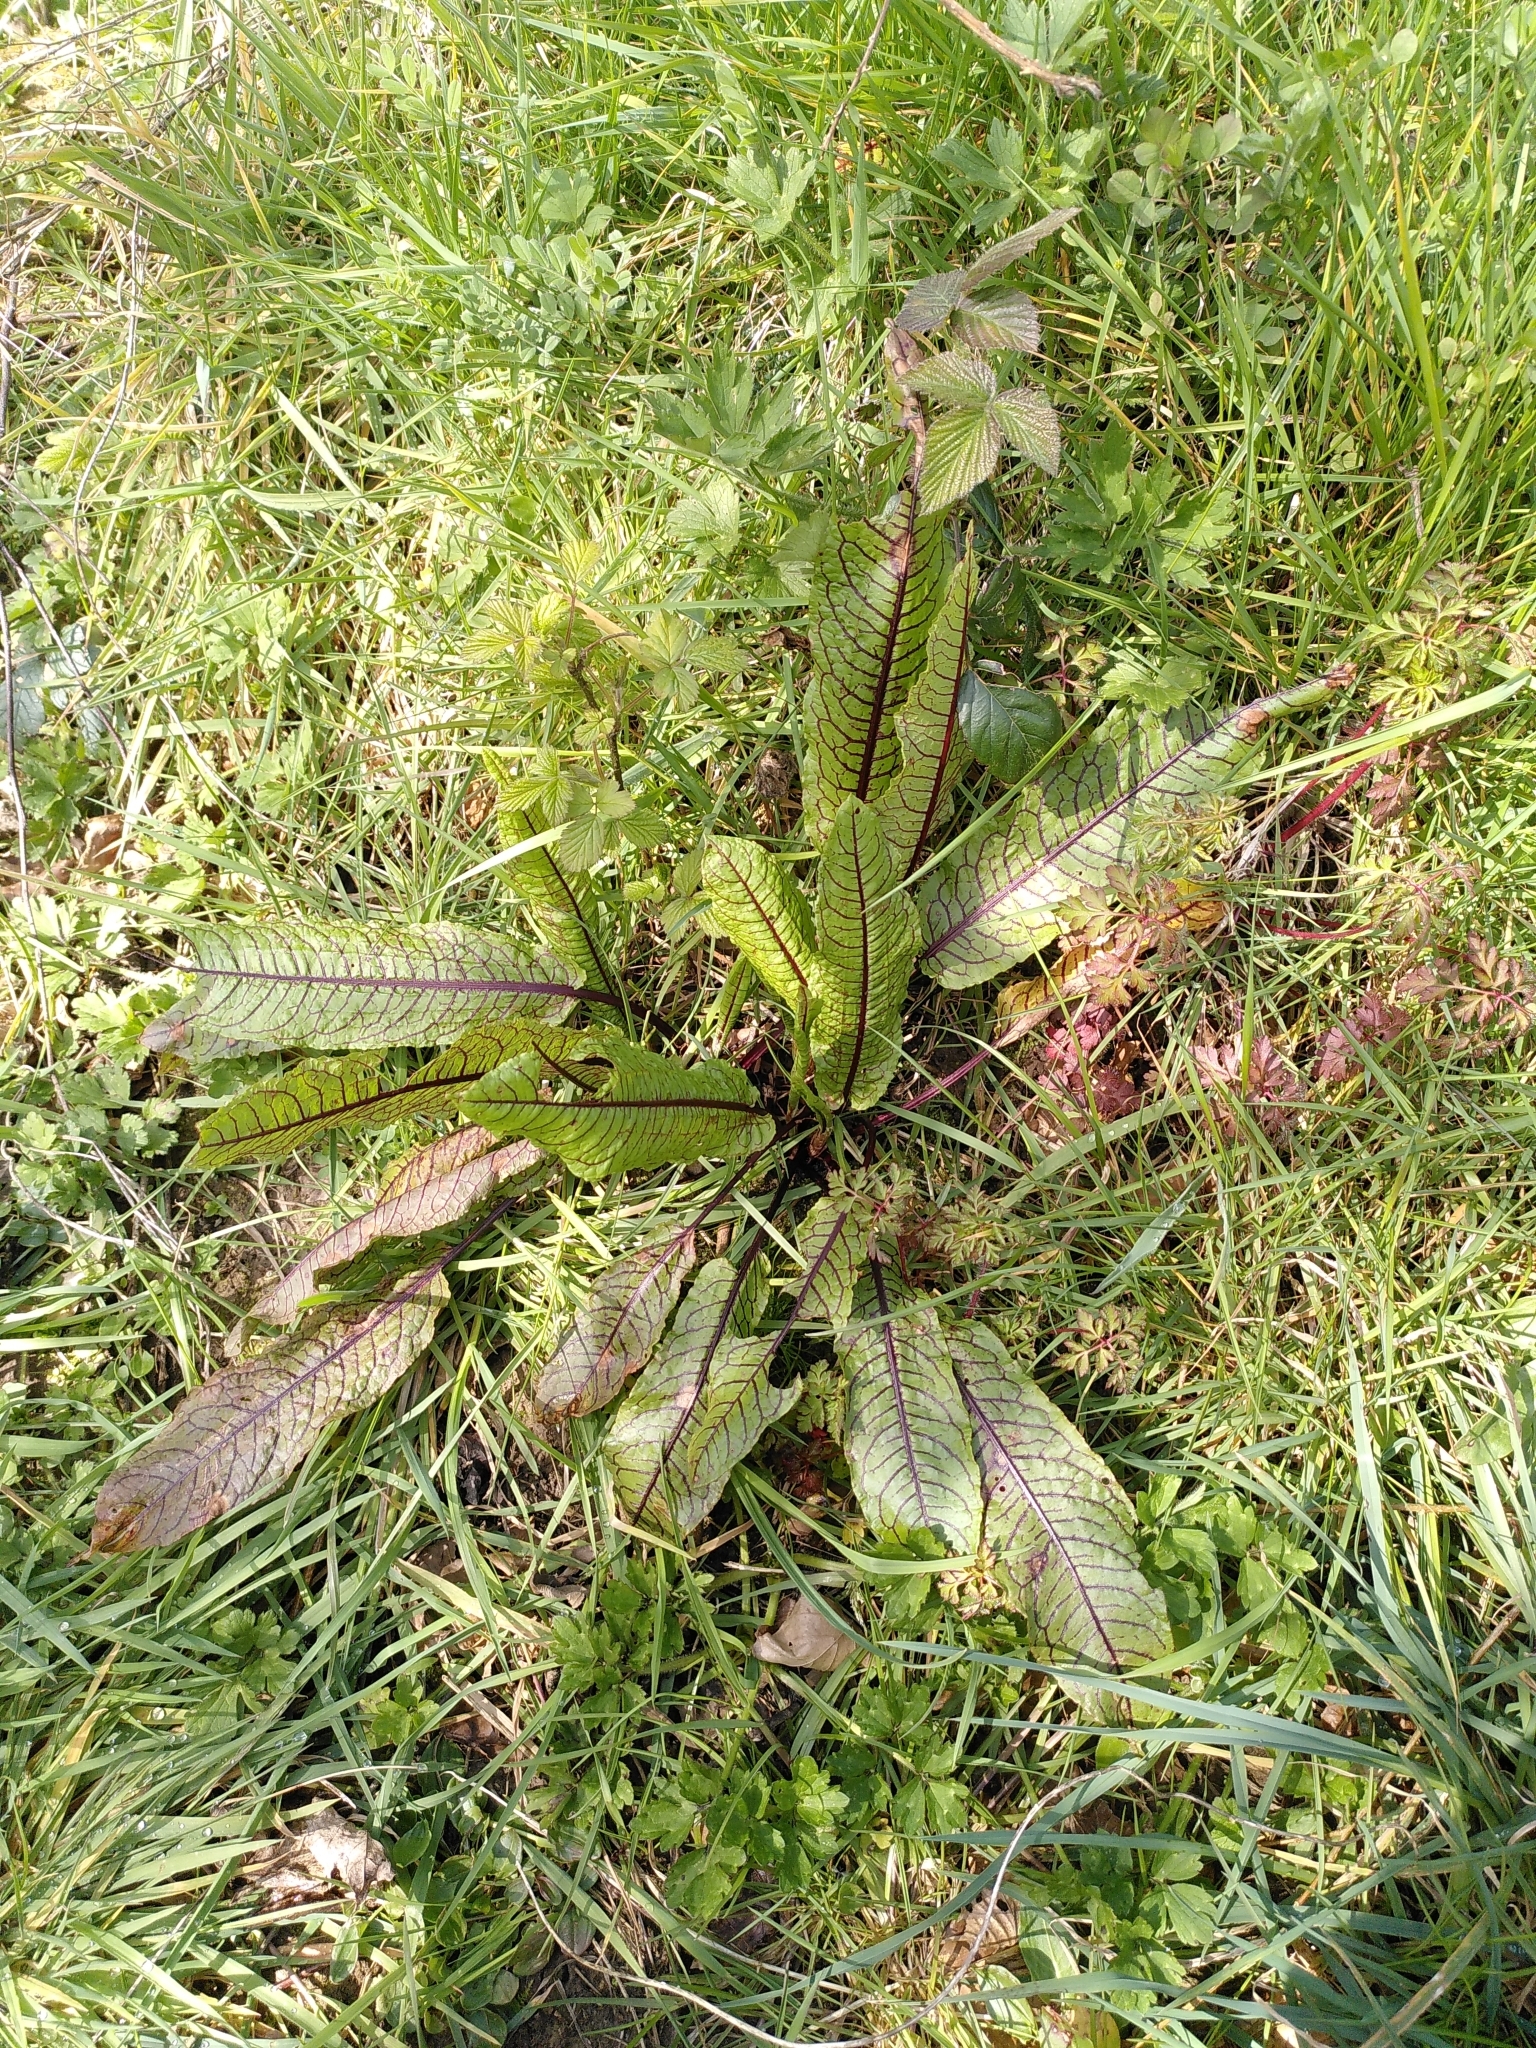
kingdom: Plantae
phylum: Tracheophyta
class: Magnoliopsida
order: Caryophyllales
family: Polygonaceae
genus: Rumex
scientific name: Rumex sanguineus
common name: Wood dock
